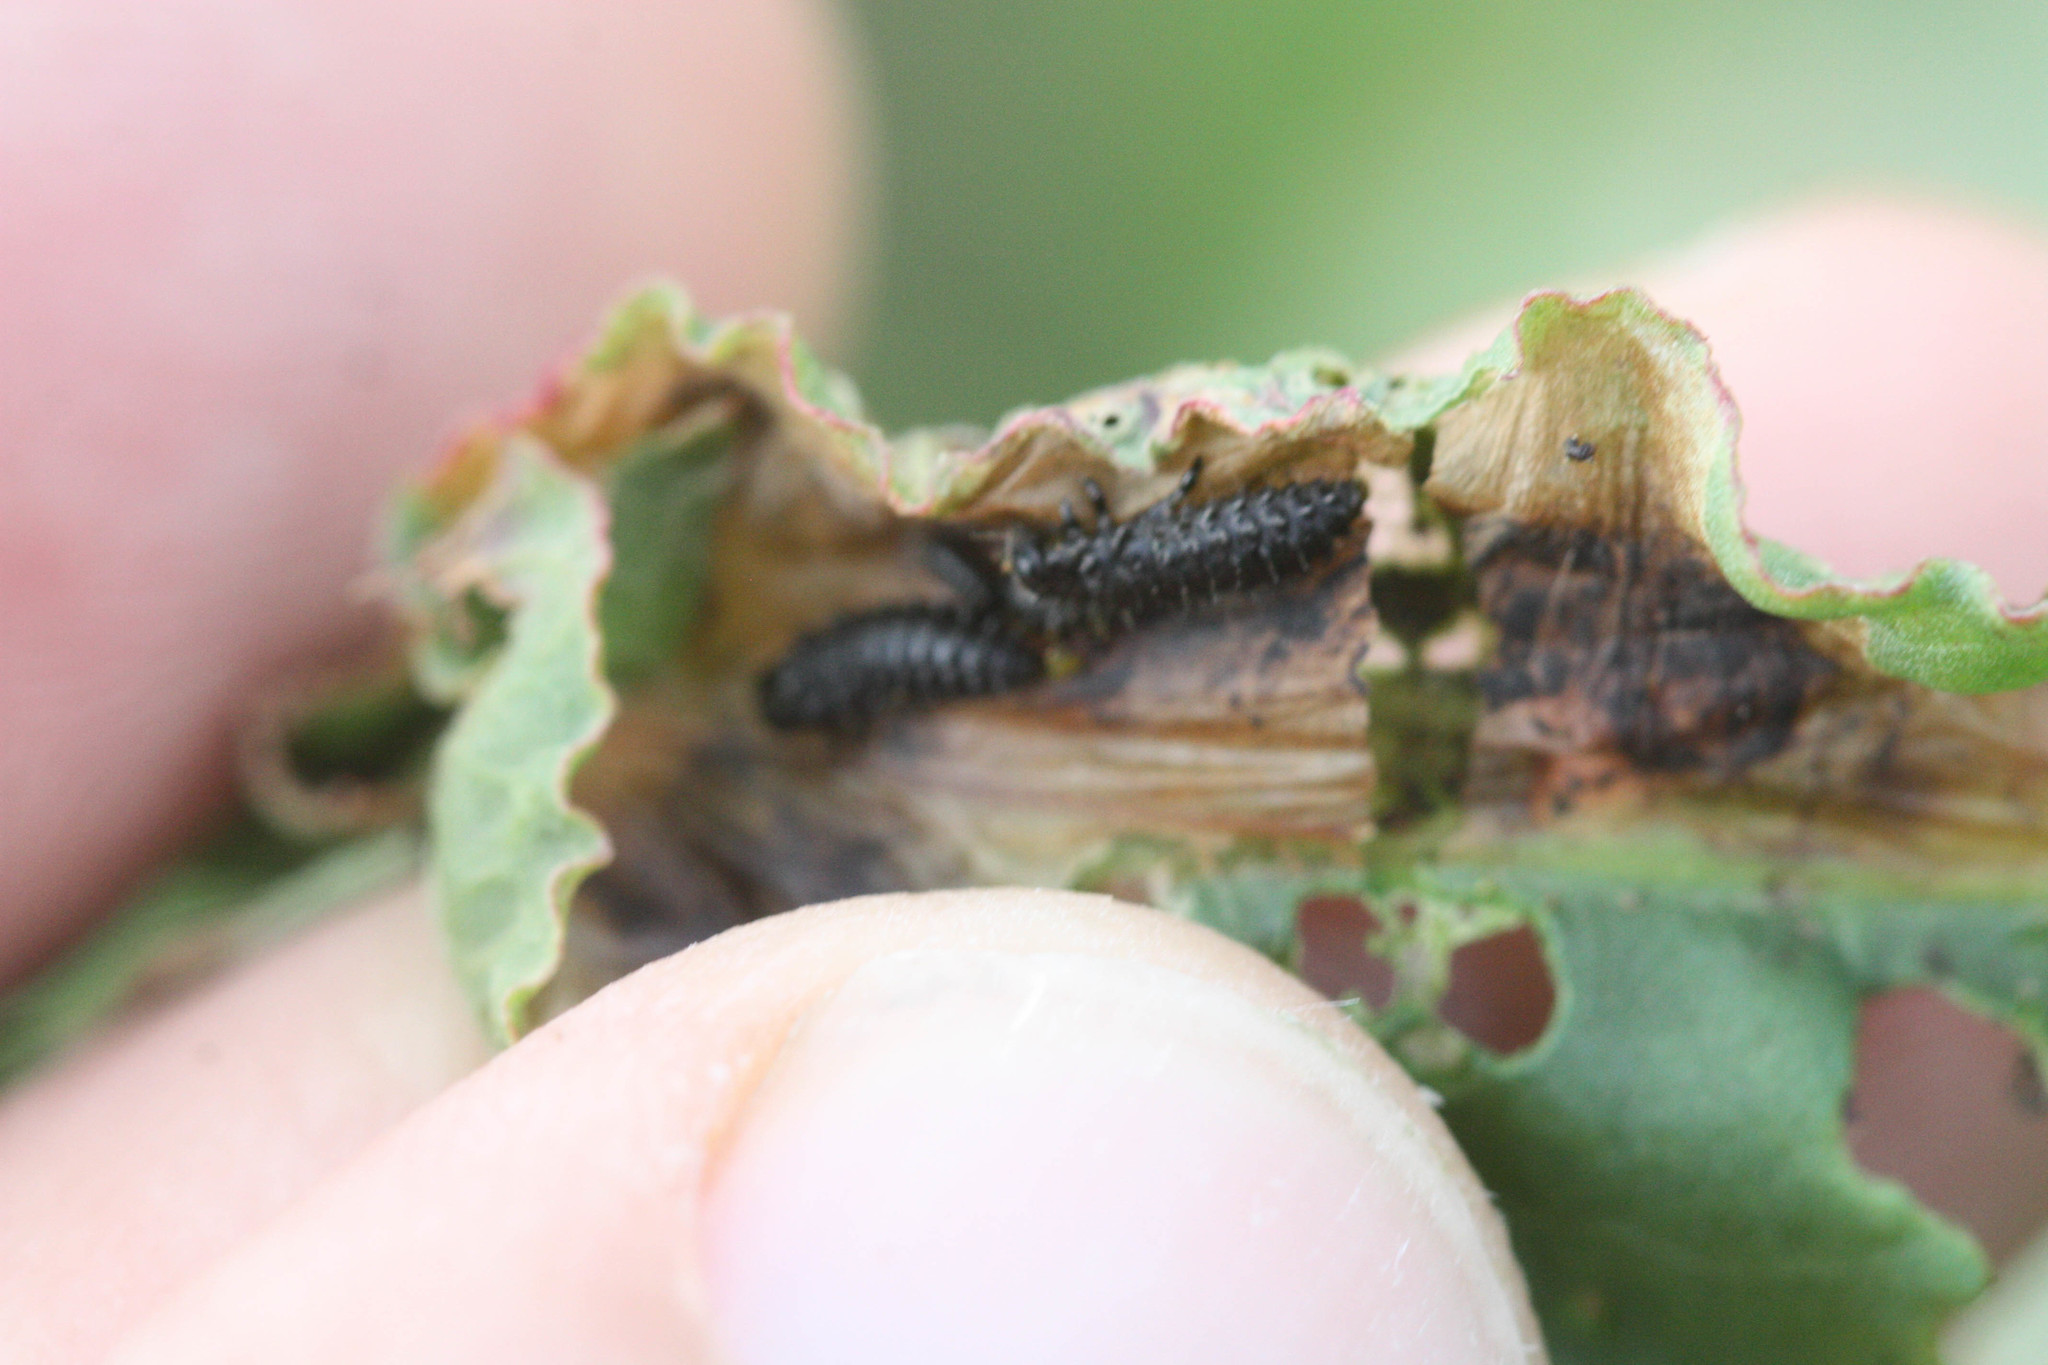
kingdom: Animalia
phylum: Arthropoda
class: Insecta
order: Coleoptera
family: Chrysomelidae
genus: Gastrophysa
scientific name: Gastrophysa cyanea
